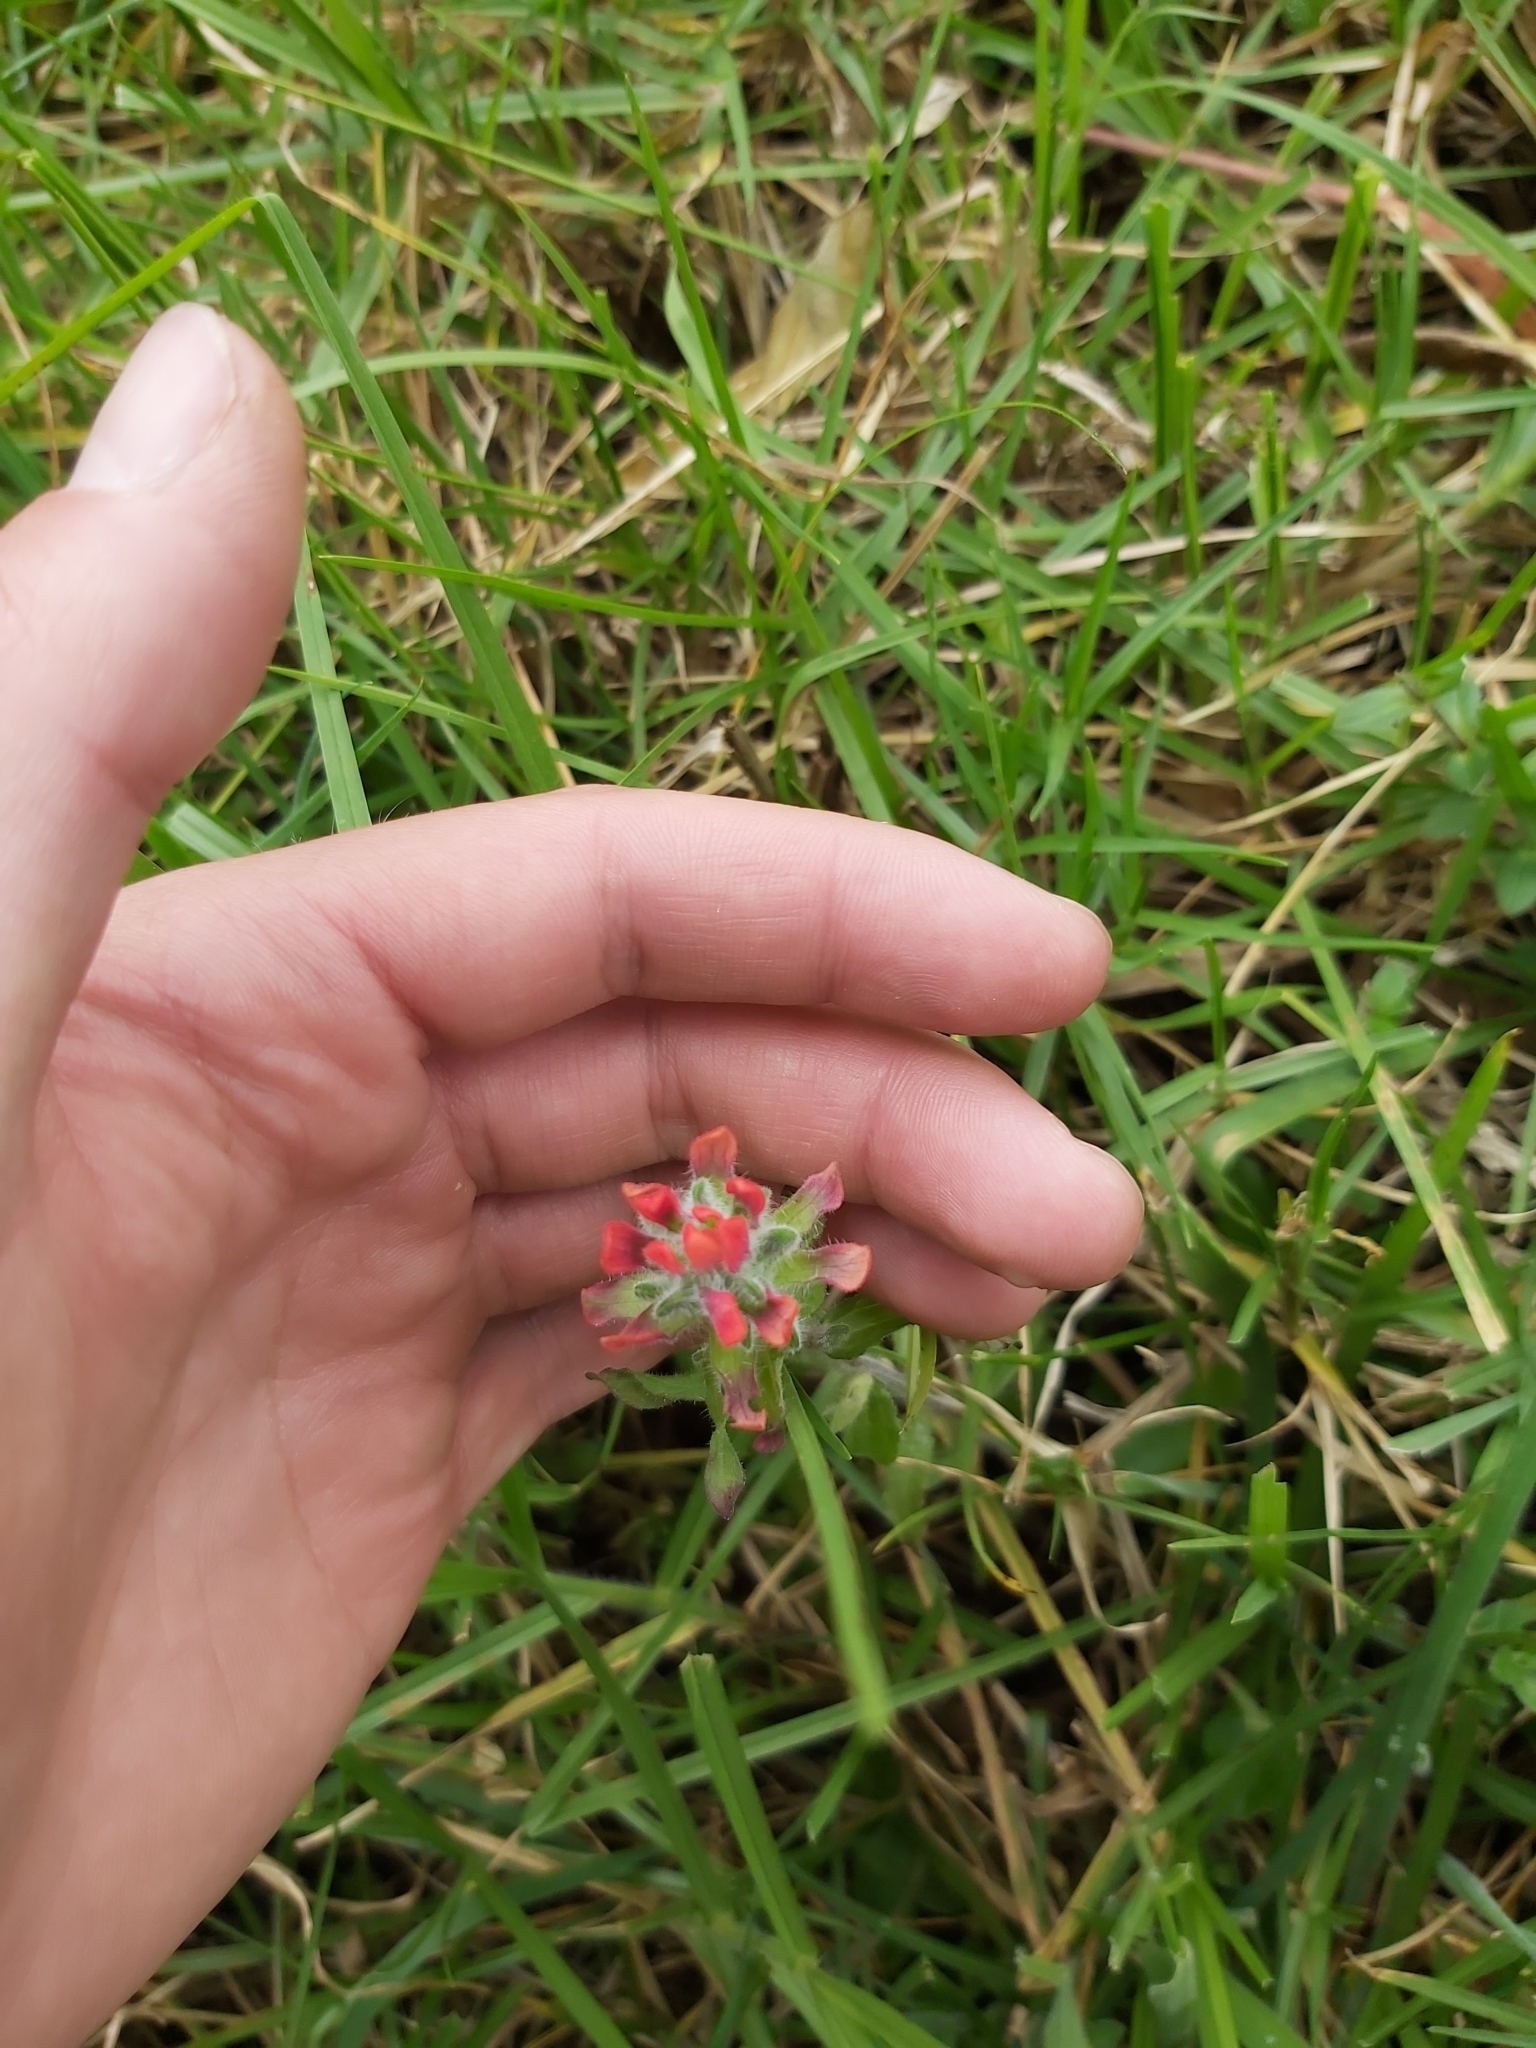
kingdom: Plantae
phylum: Tracheophyta
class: Magnoliopsida
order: Lamiales
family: Orobanchaceae
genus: Castilleja
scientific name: Castilleja arvensis
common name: Indian paintbrush
